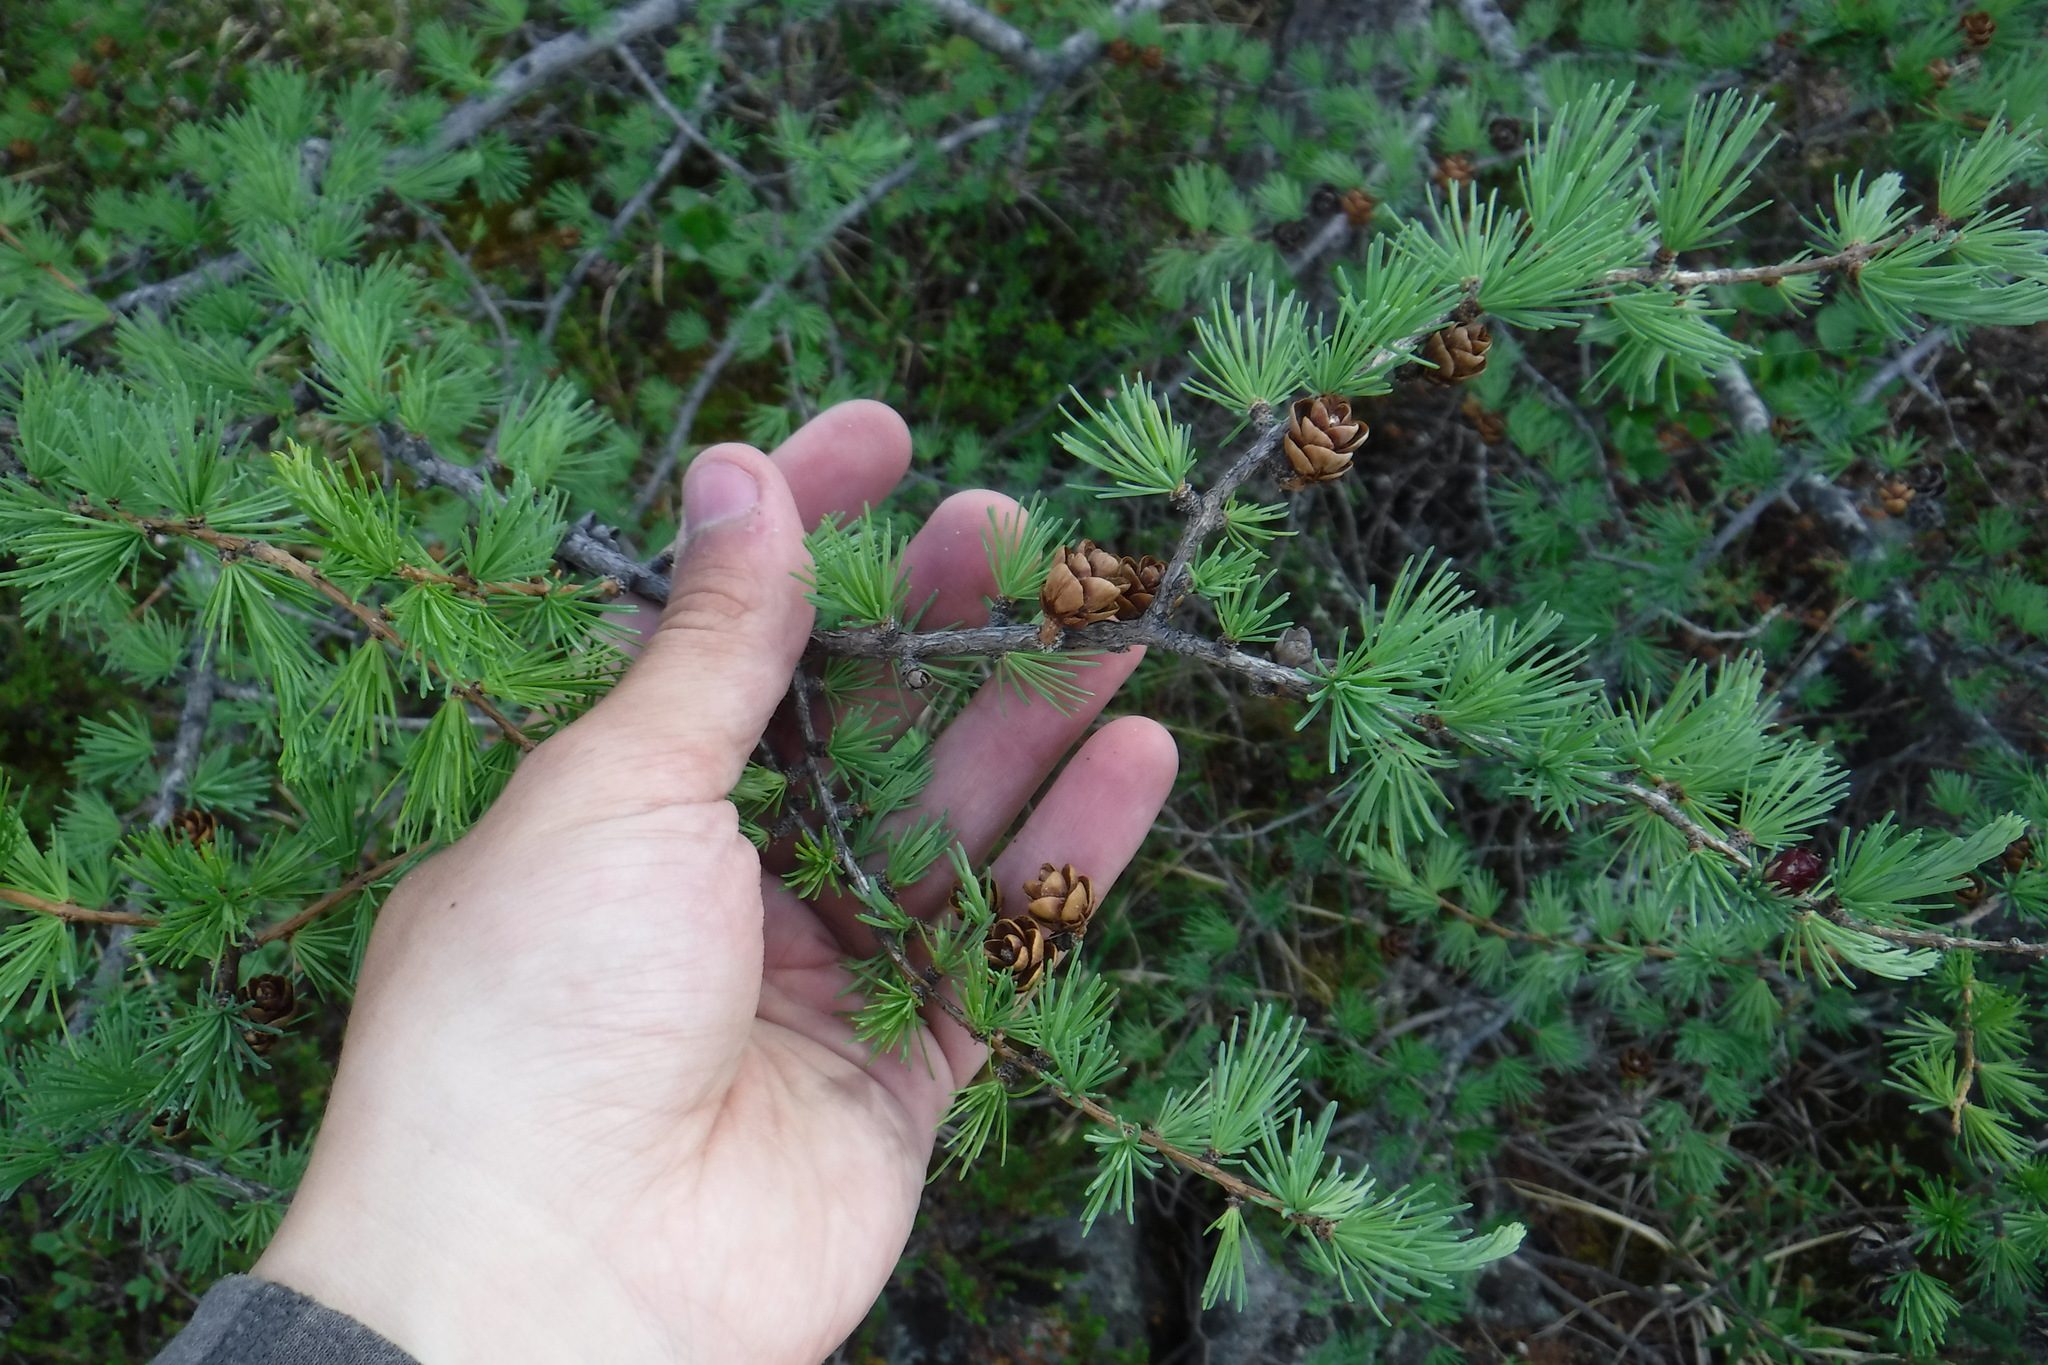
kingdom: Plantae
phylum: Tracheophyta
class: Pinopsida
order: Pinales
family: Pinaceae
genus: Larix
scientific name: Larix laricina
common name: American larch
